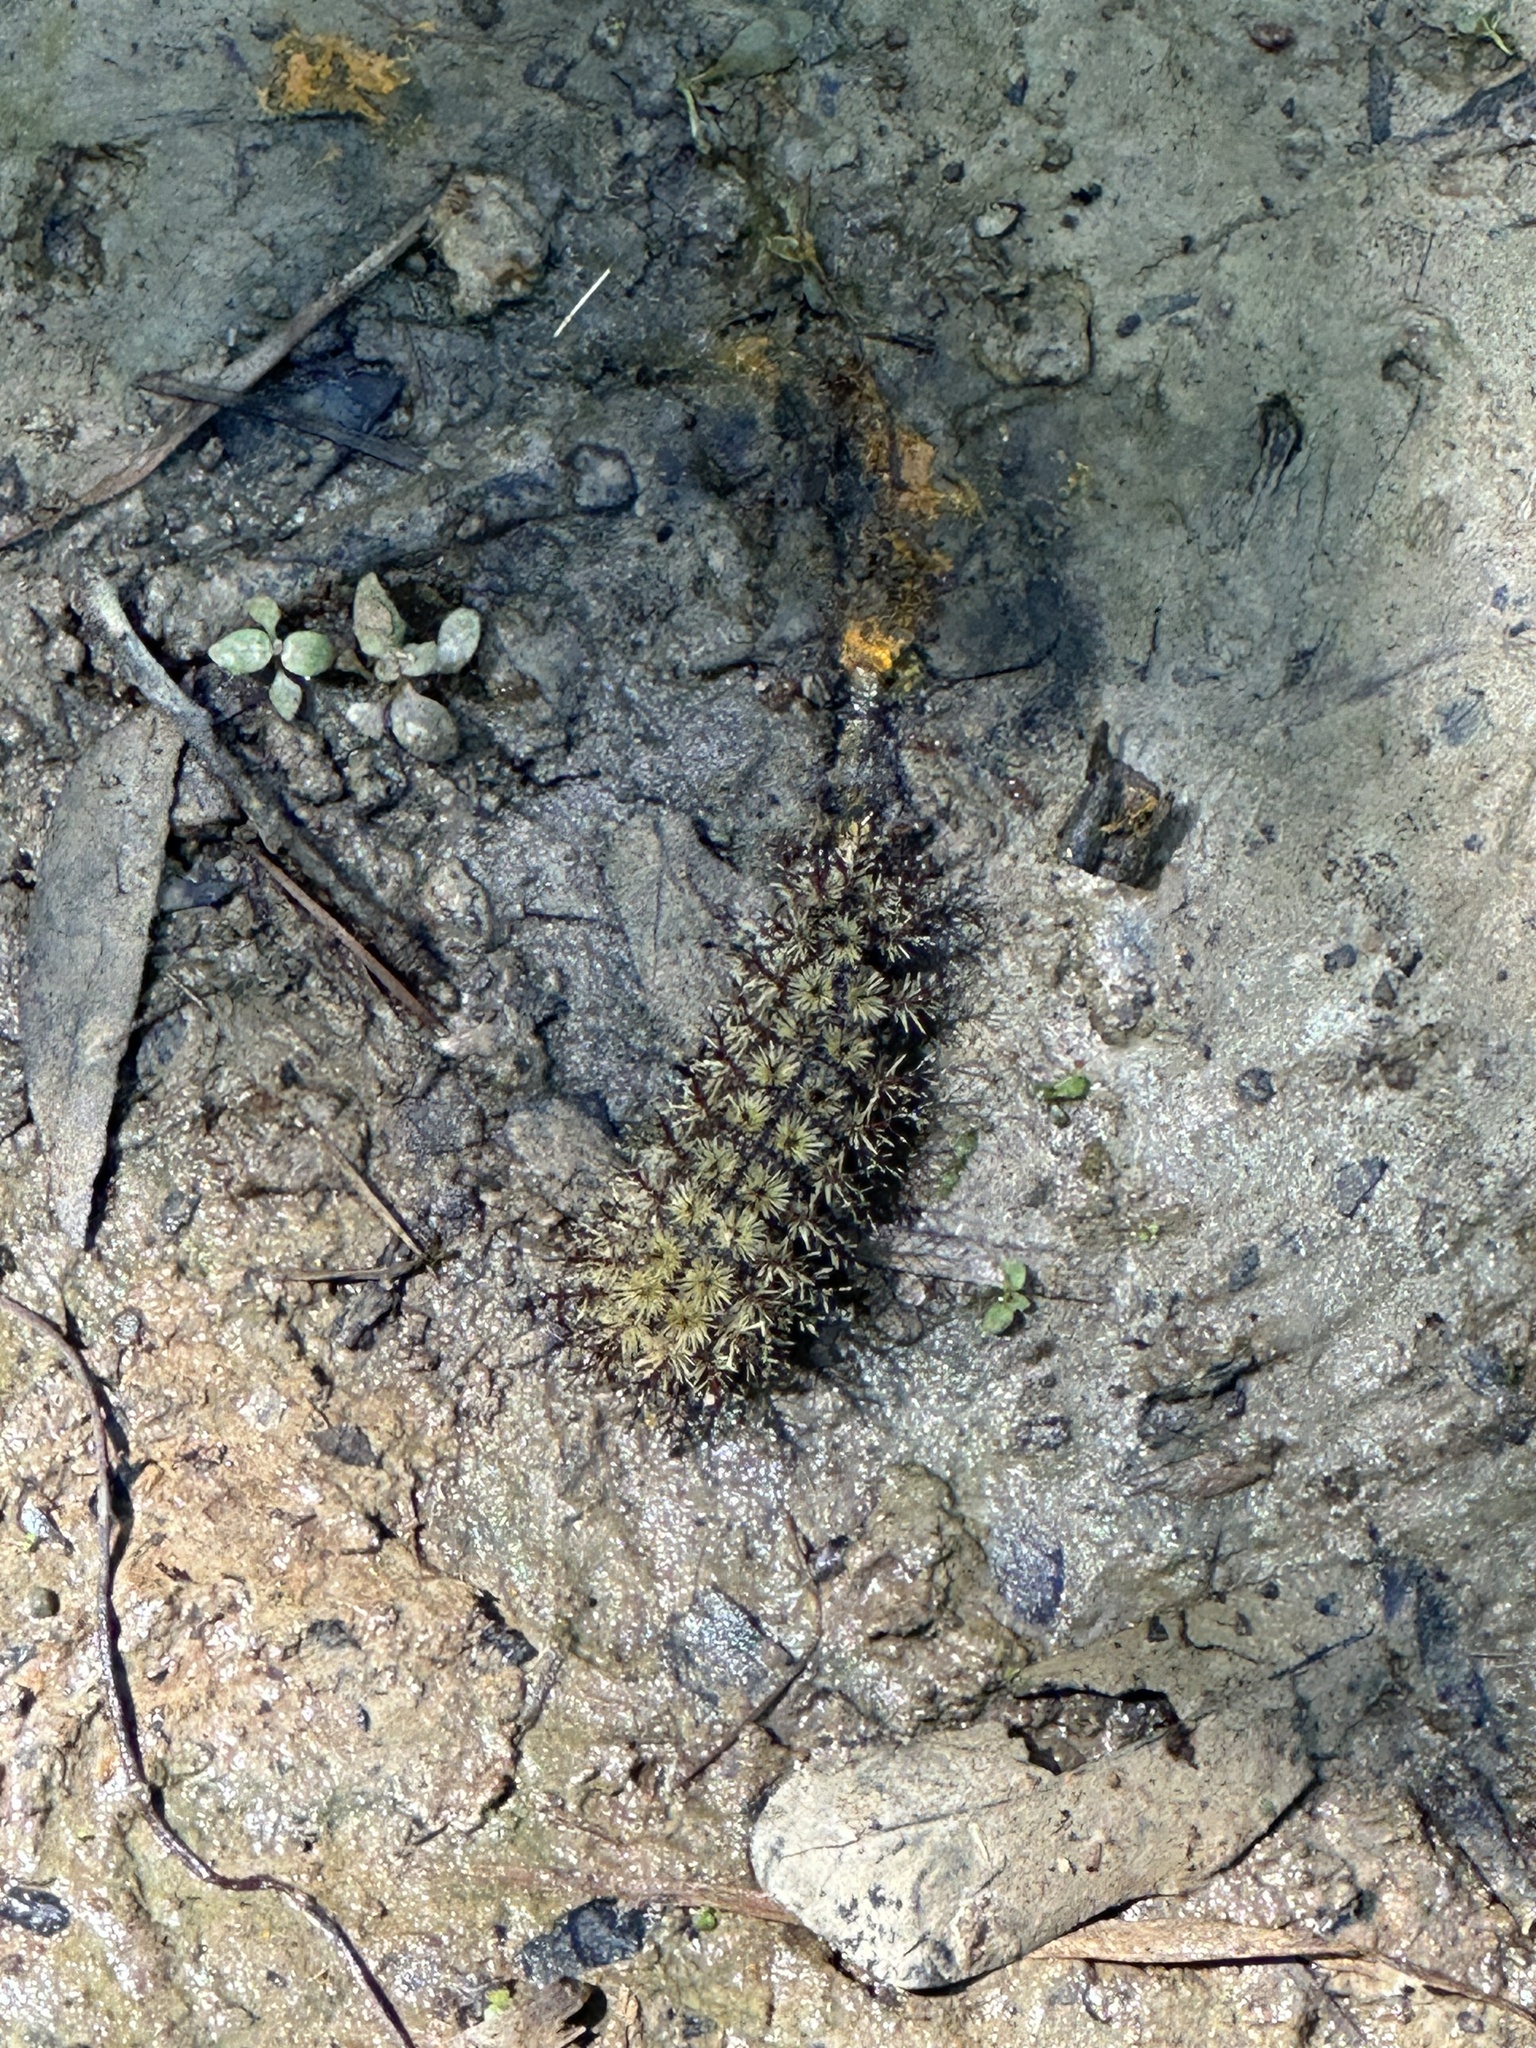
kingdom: Animalia
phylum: Arthropoda
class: Insecta
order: Lepidoptera
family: Saturniidae
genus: Hemileuca
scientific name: Hemileuca maia
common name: Eastern buckmoth
